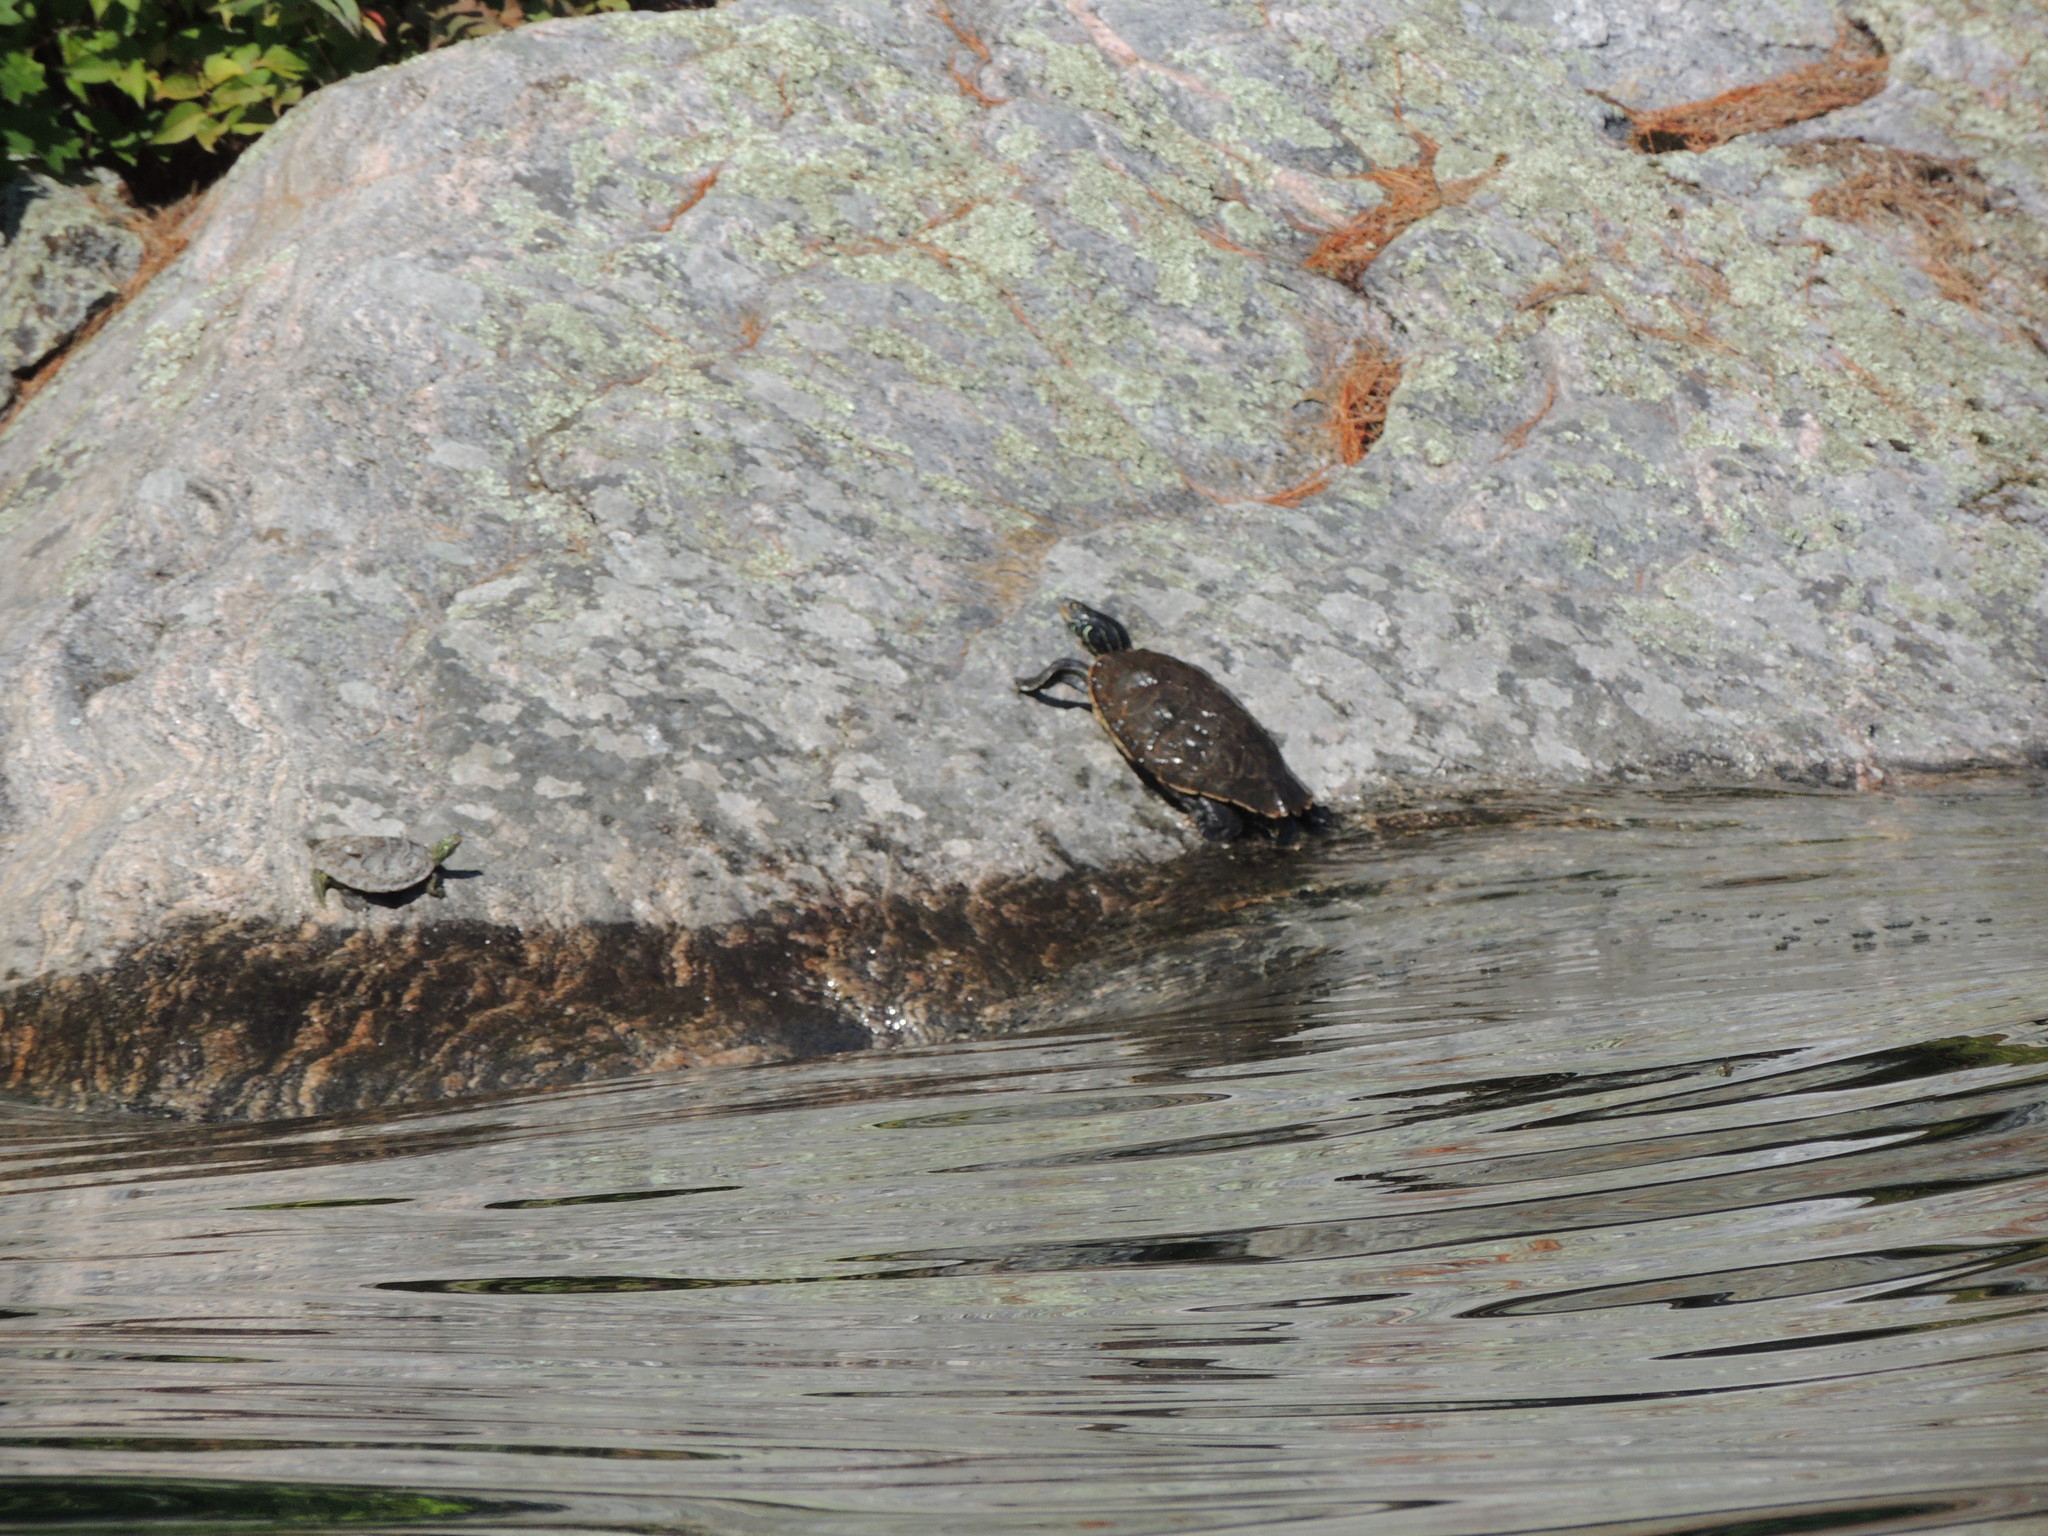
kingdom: Animalia
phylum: Chordata
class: Testudines
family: Emydidae
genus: Graptemys
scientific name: Graptemys geographica
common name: Common map turtle
